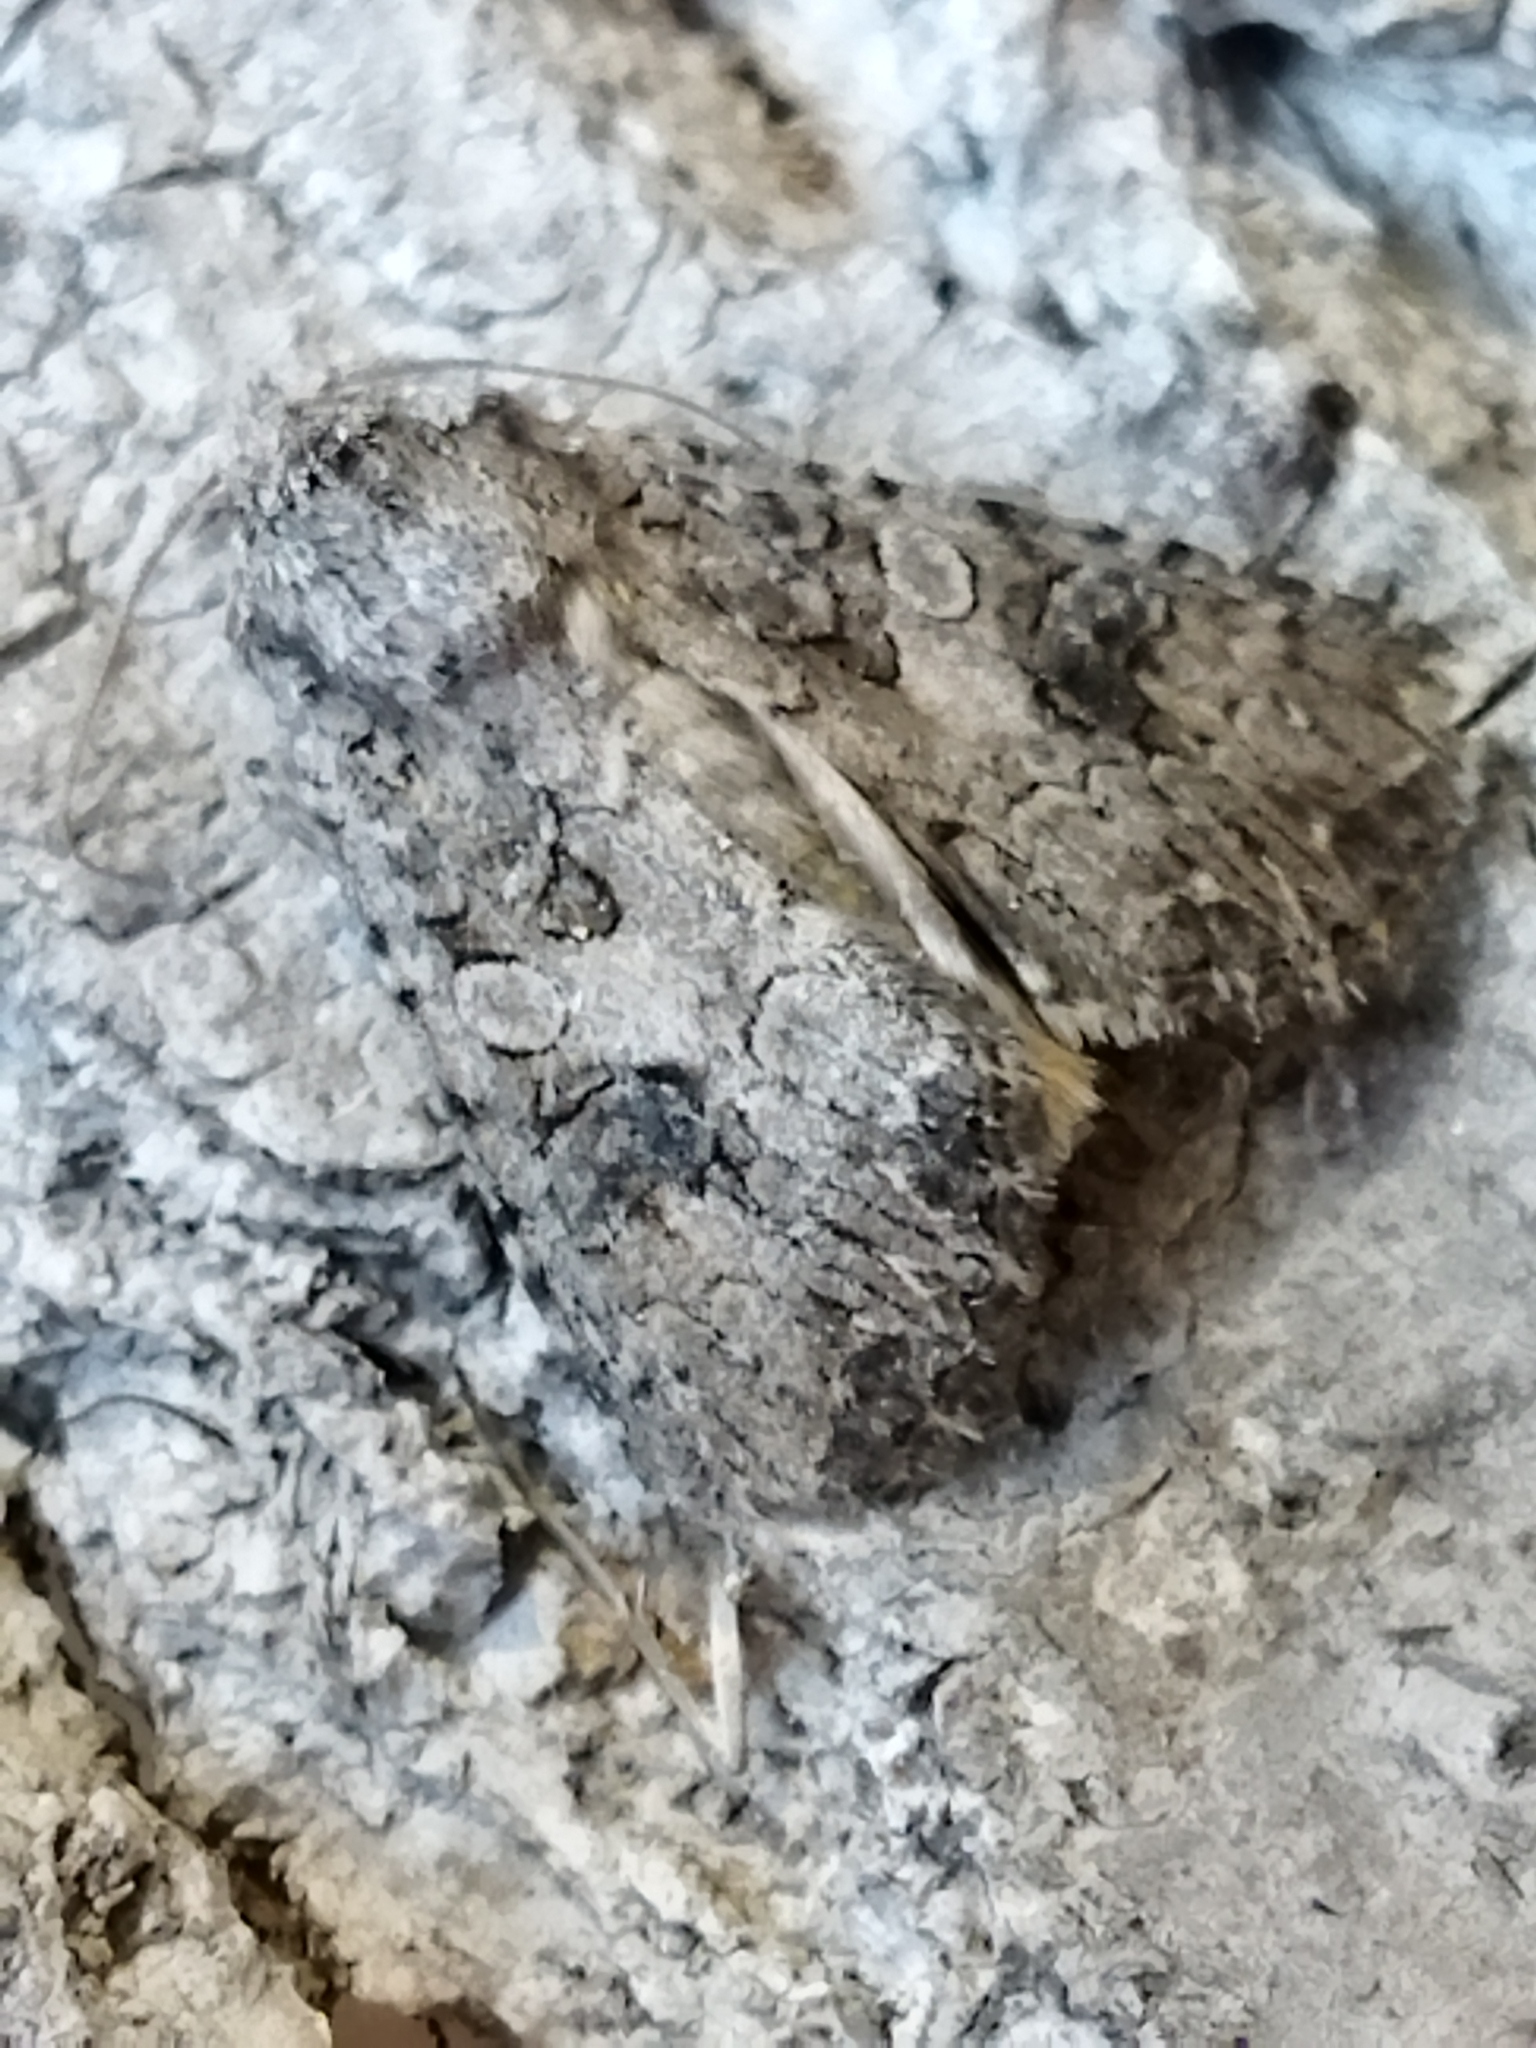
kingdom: Animalia
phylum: Arthropoda
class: Insecta
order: Lepidoptera
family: Noctuidae
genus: Anarta
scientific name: Anarta trifolii
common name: Clover cutworm moth
